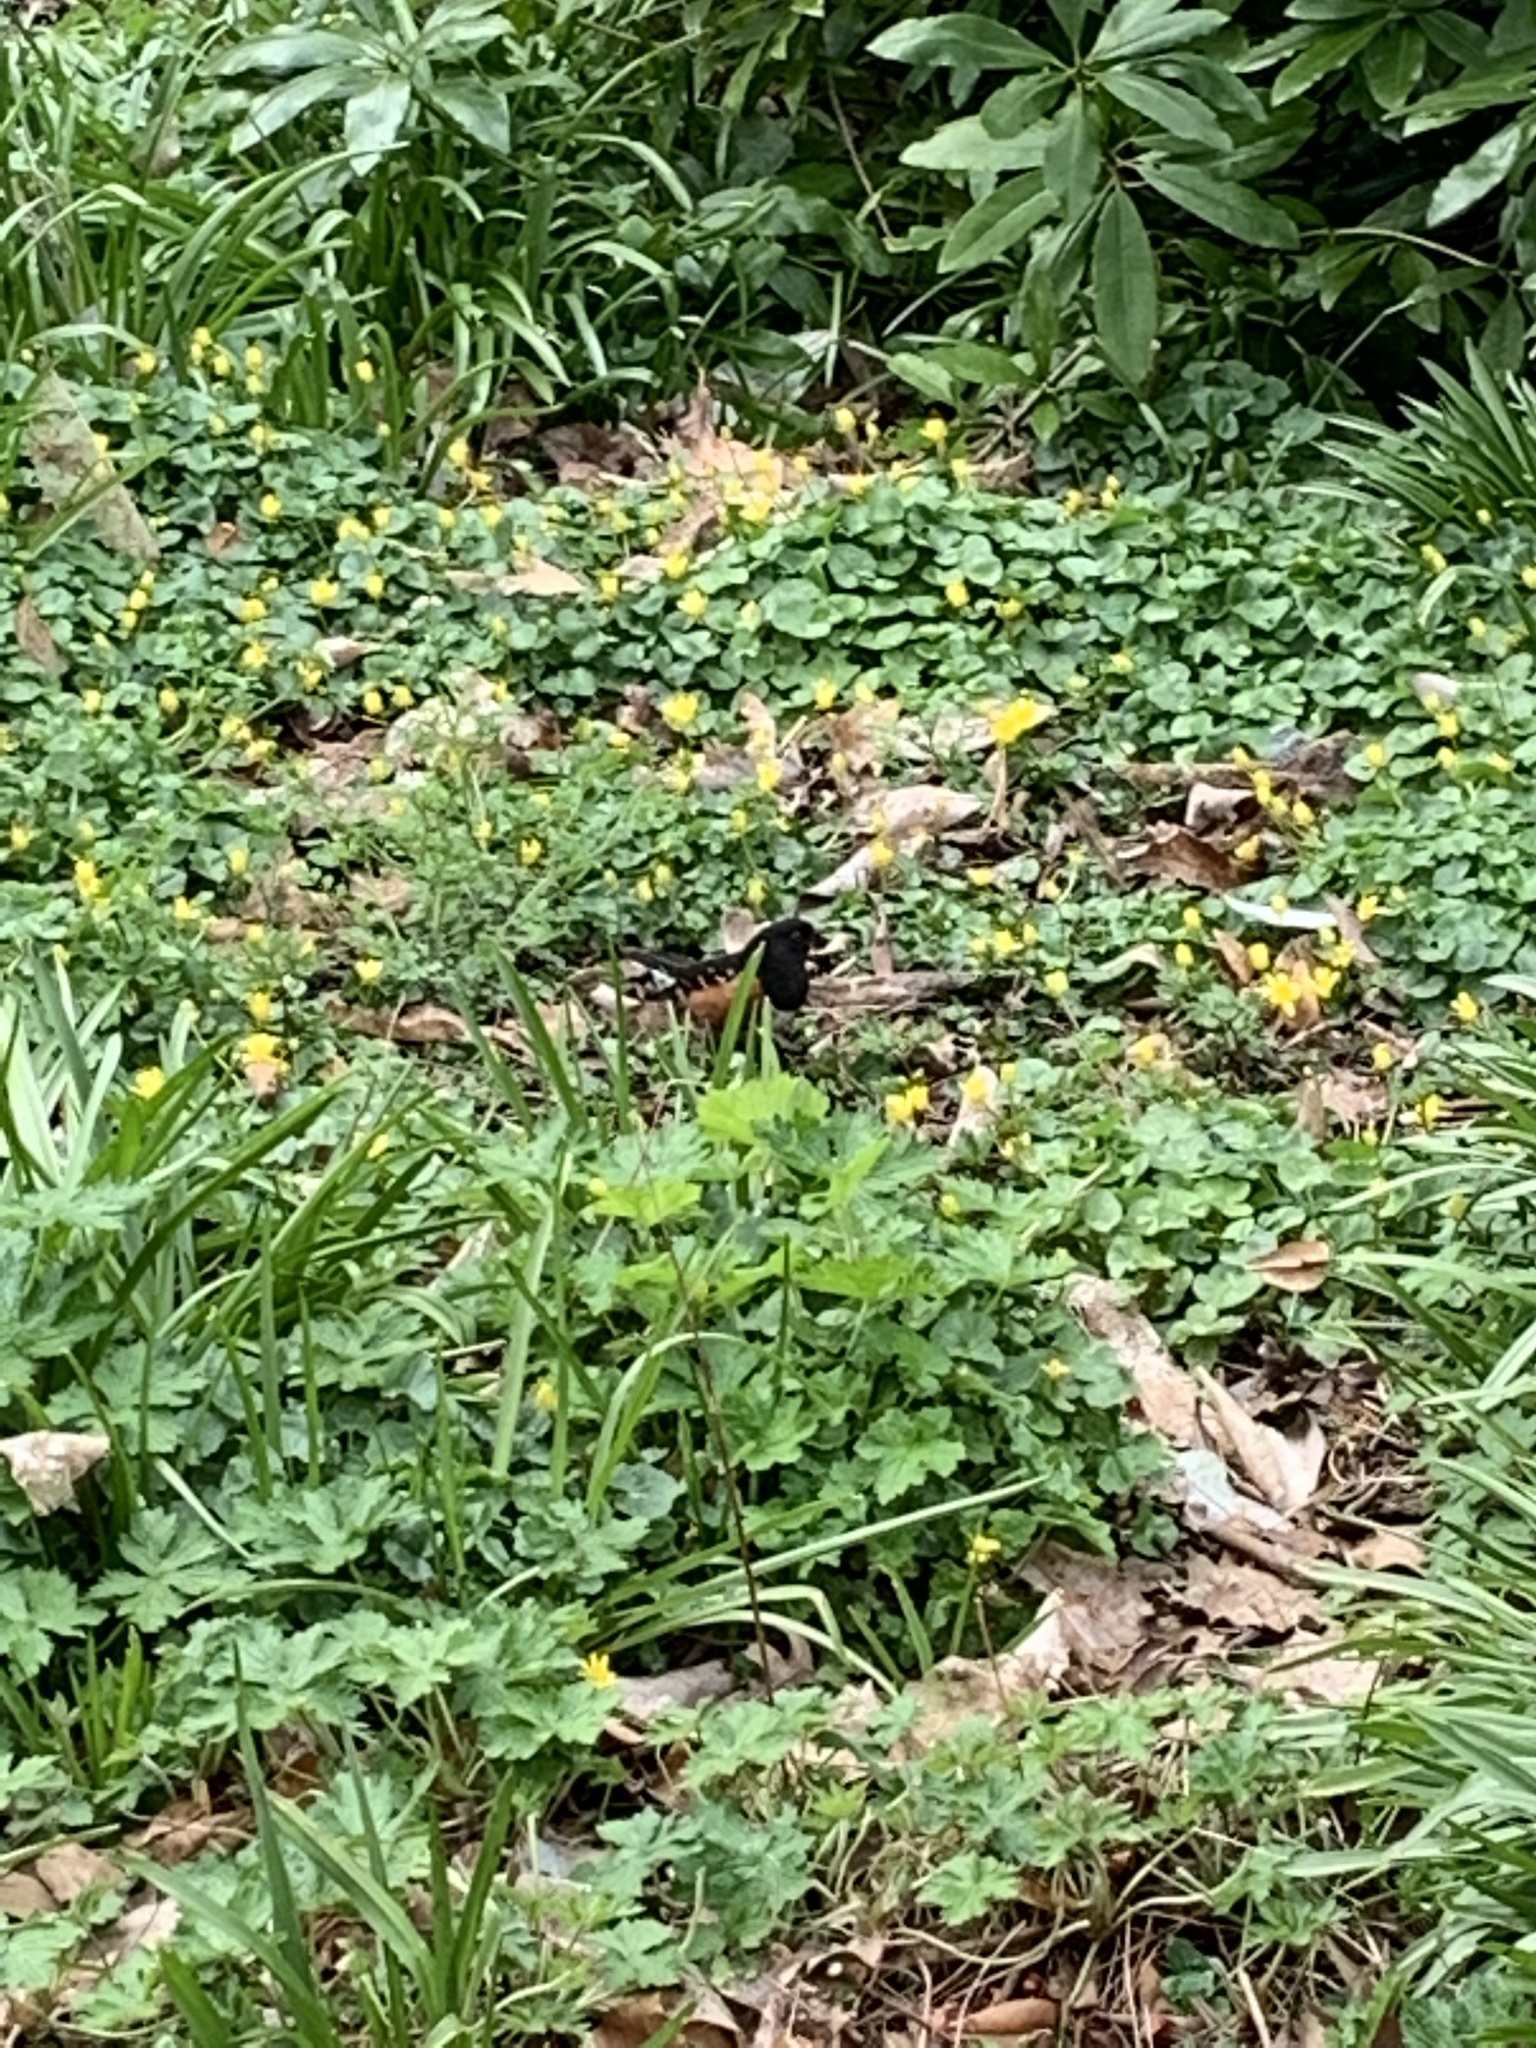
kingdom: Animalia
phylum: Chordata
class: Aves
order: Passeriformes
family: Passerellidae
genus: Pipilo
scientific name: Pipilo maculatus
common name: Spotted towhee
